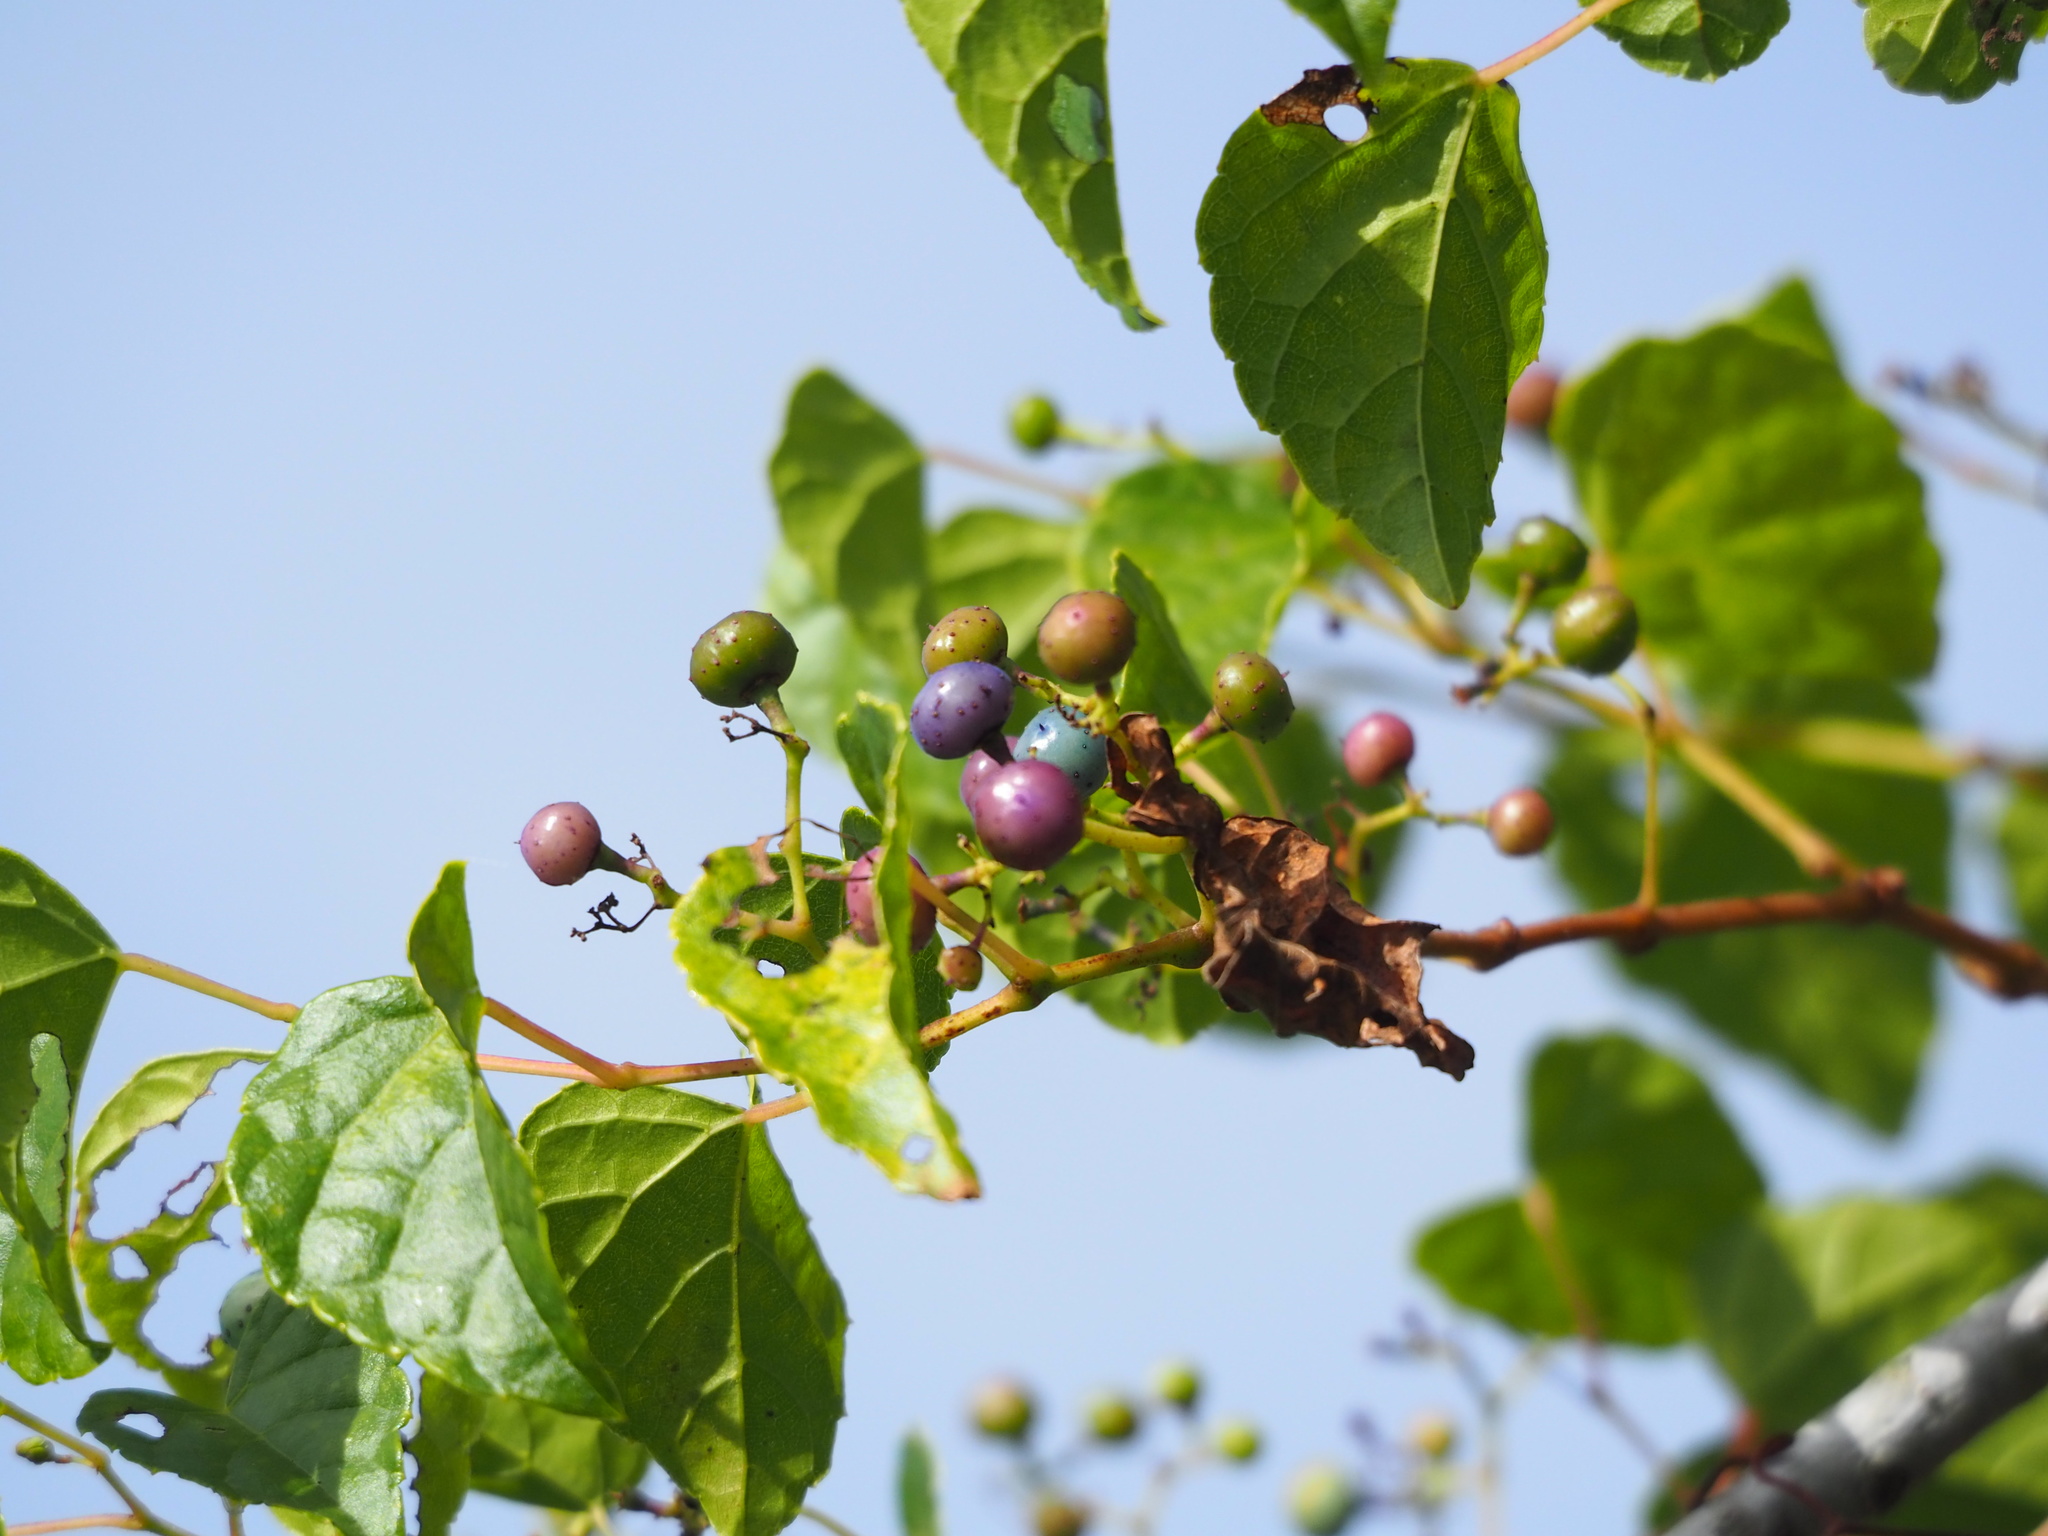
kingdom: Plantae
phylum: Tracheophyta
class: Magnoliopsida
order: Vitales
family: Vitaceae
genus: Ampelopsis
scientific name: Ampelopsis glandulosa
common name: Amur peppervine
